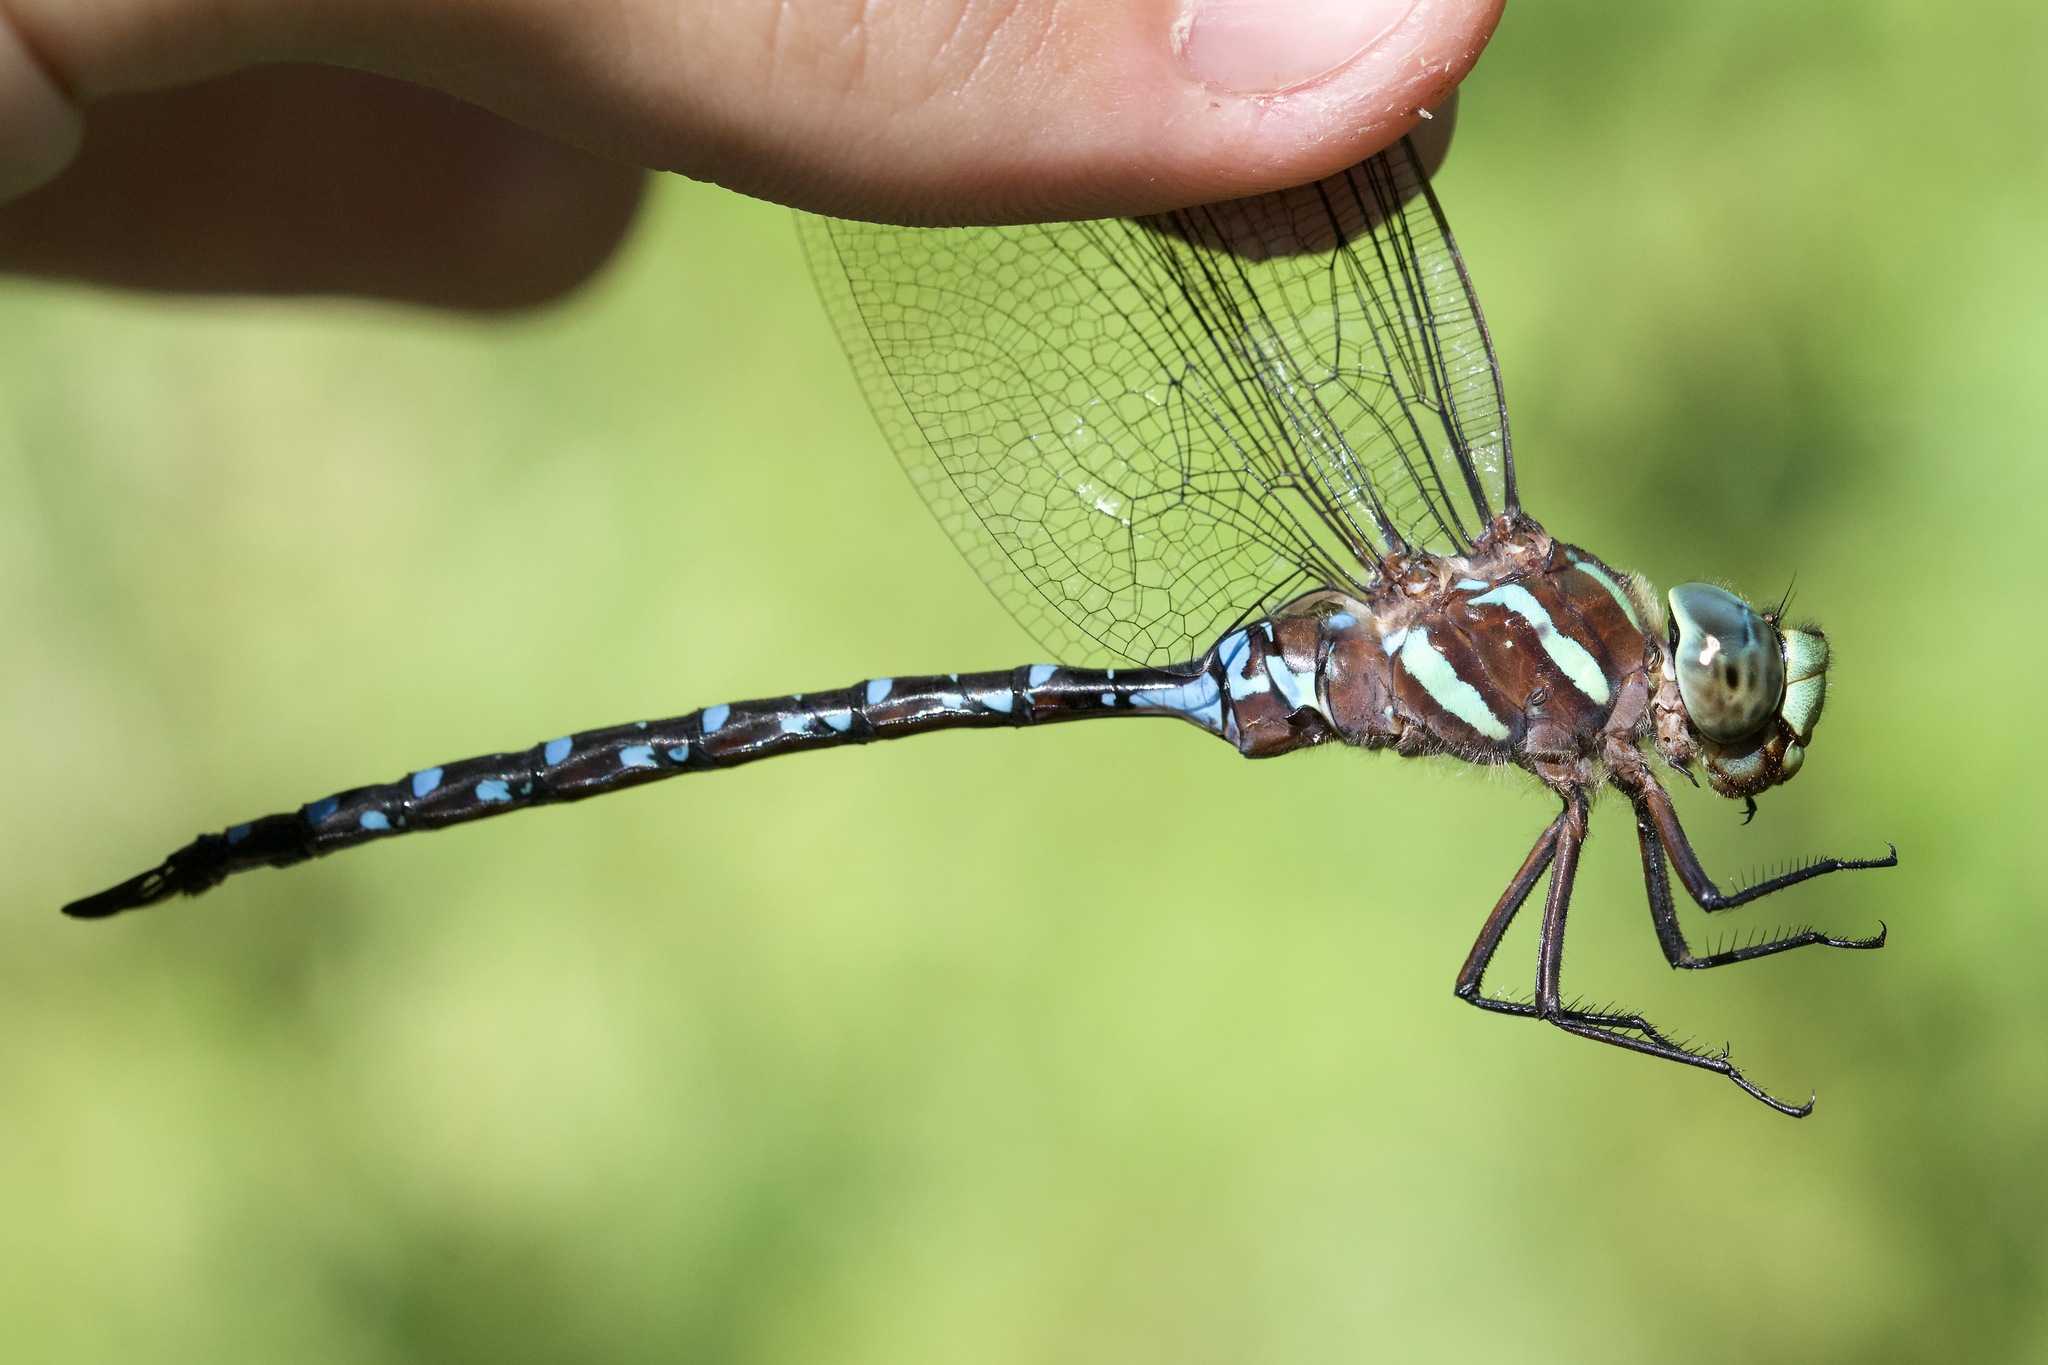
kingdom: Animalia
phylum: Arthropoda
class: Insecta
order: Odonata
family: Aeshnidae
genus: Aeshna
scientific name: Aeshna tuberculifera
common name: Aeschne à tubercules
